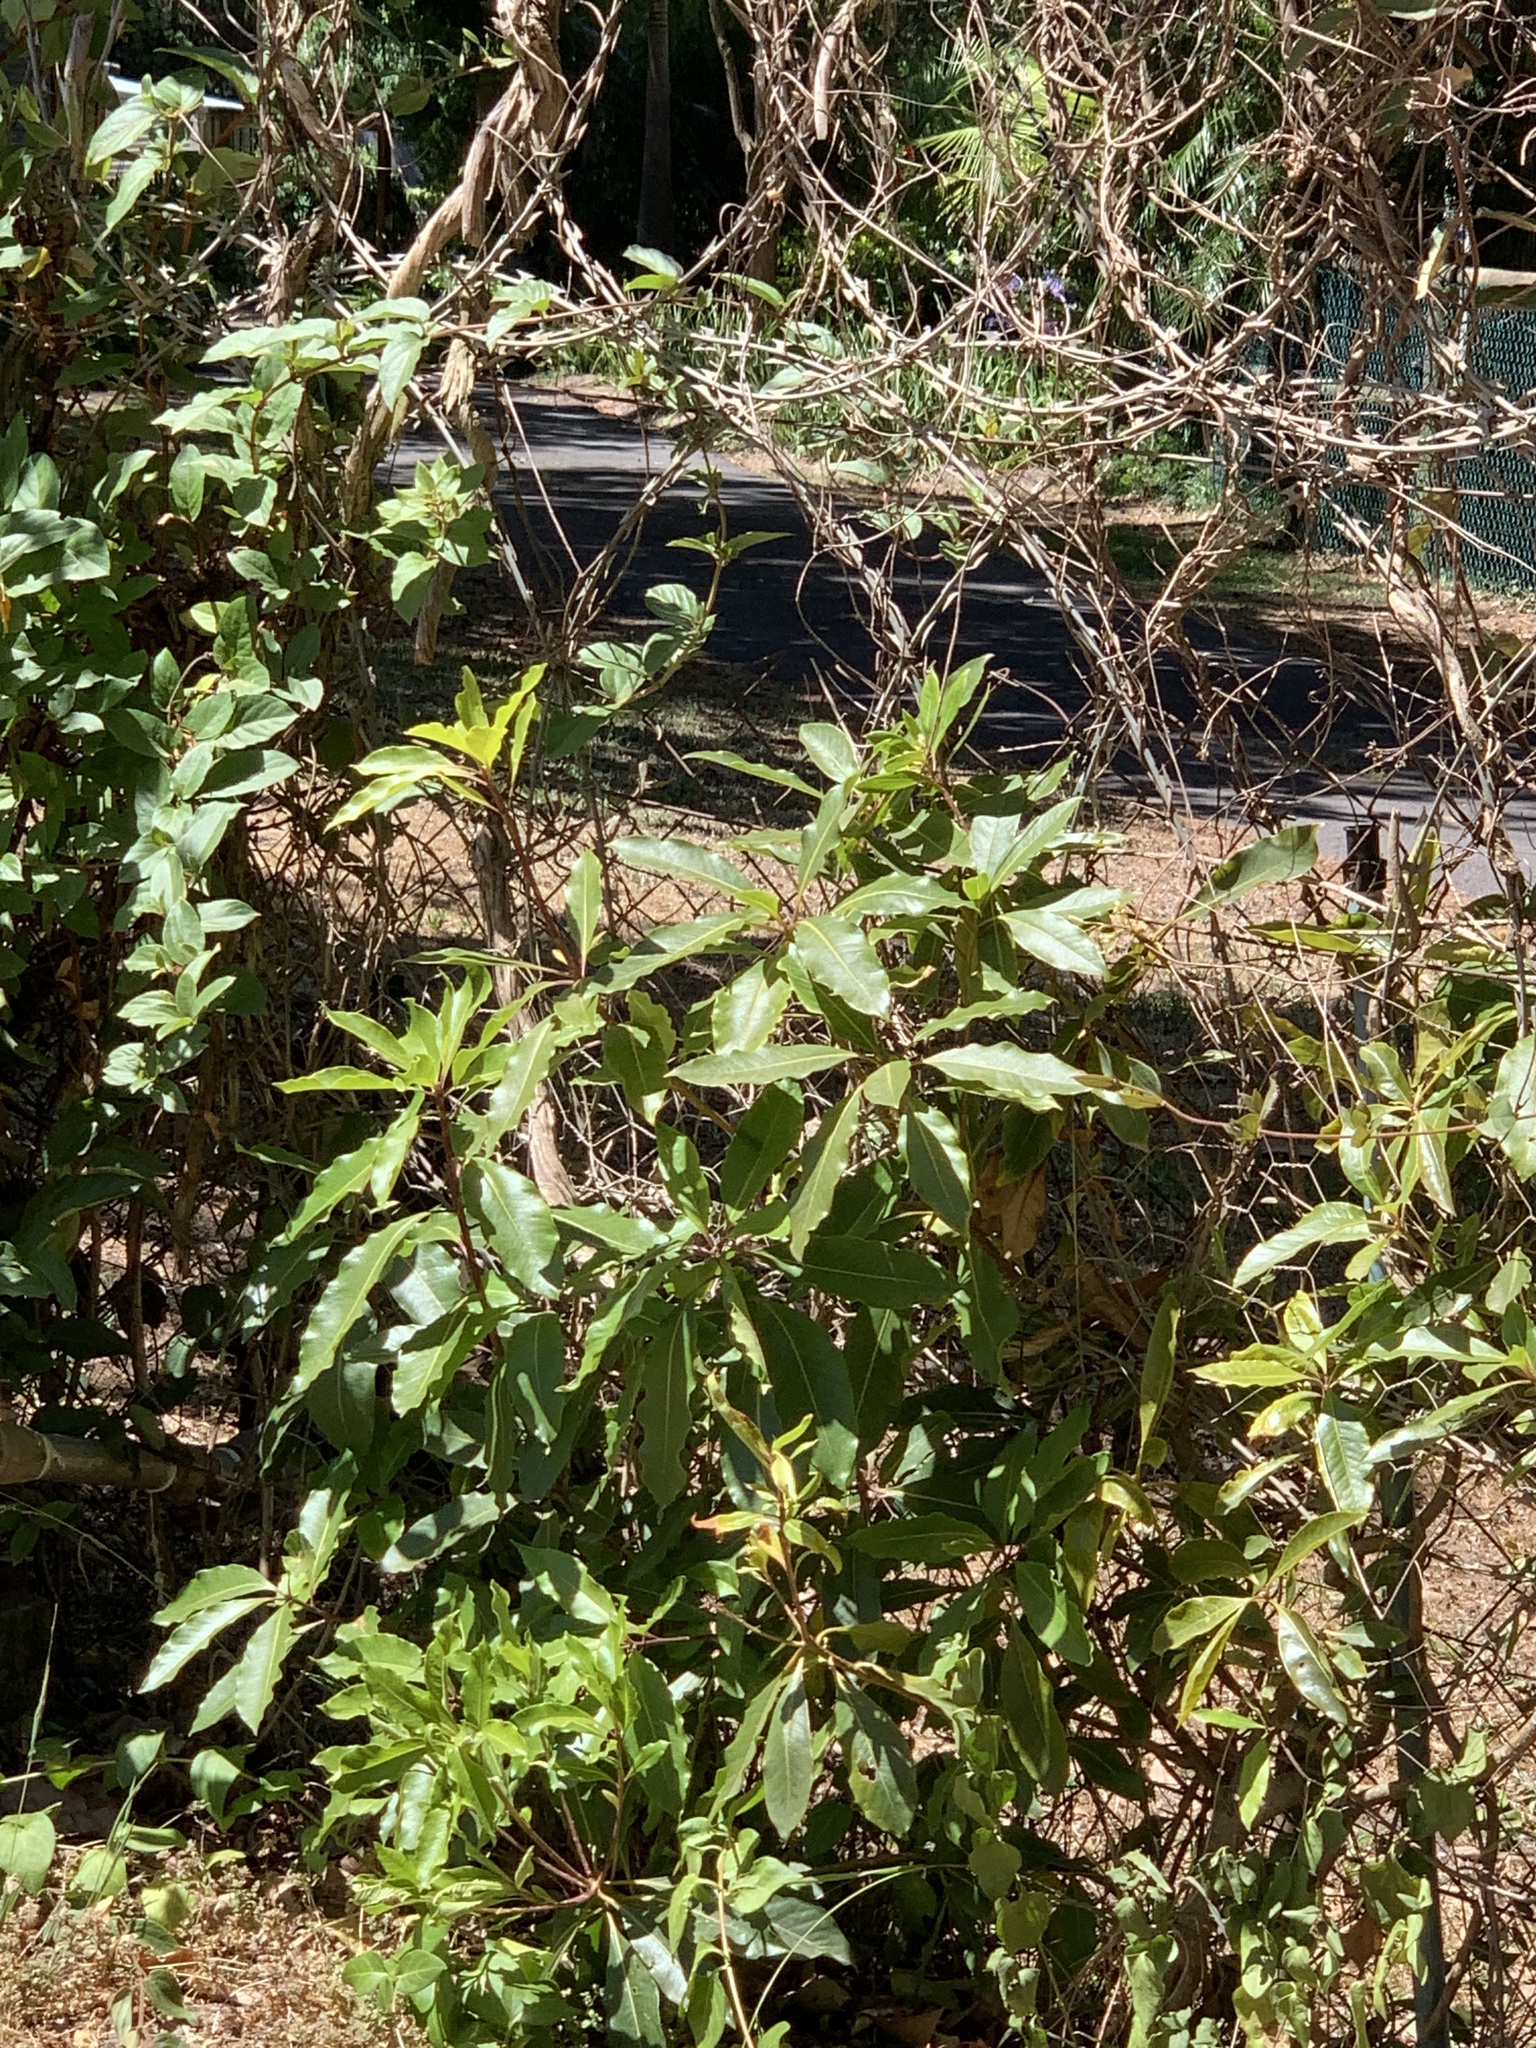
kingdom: Plantae
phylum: Tracheophyta
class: Magnoliopsida
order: Apiales
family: Pittosporaceae
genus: Pittosporum
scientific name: Pittosporum undulatum
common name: Australian cheesewood
